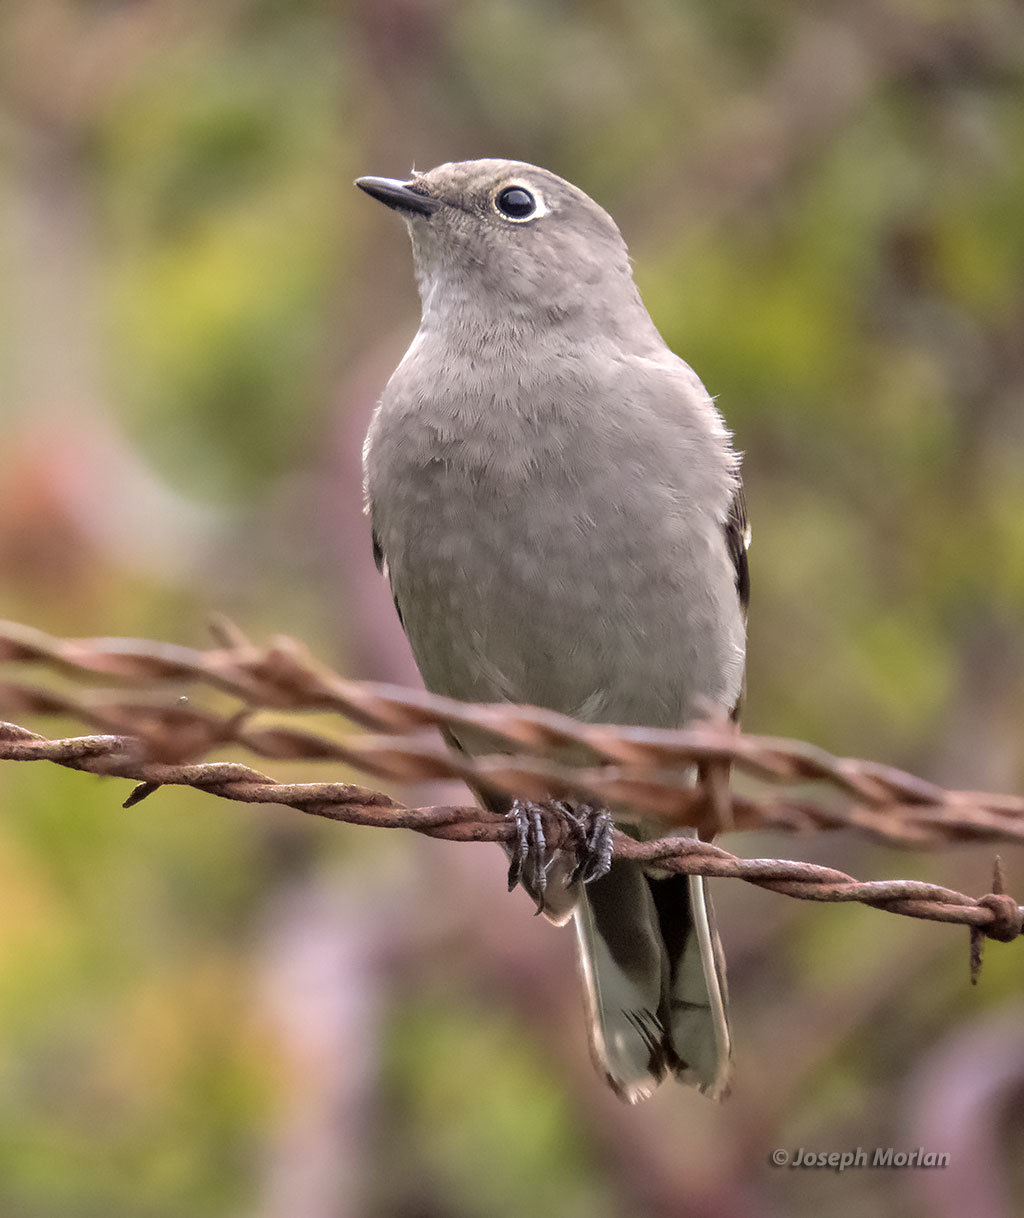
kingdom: Animalia
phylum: Chordata
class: Aves
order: Passeriformes
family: Turdidae
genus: Myadestes
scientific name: Myadestes townsendi
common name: Townsend's solitaire
